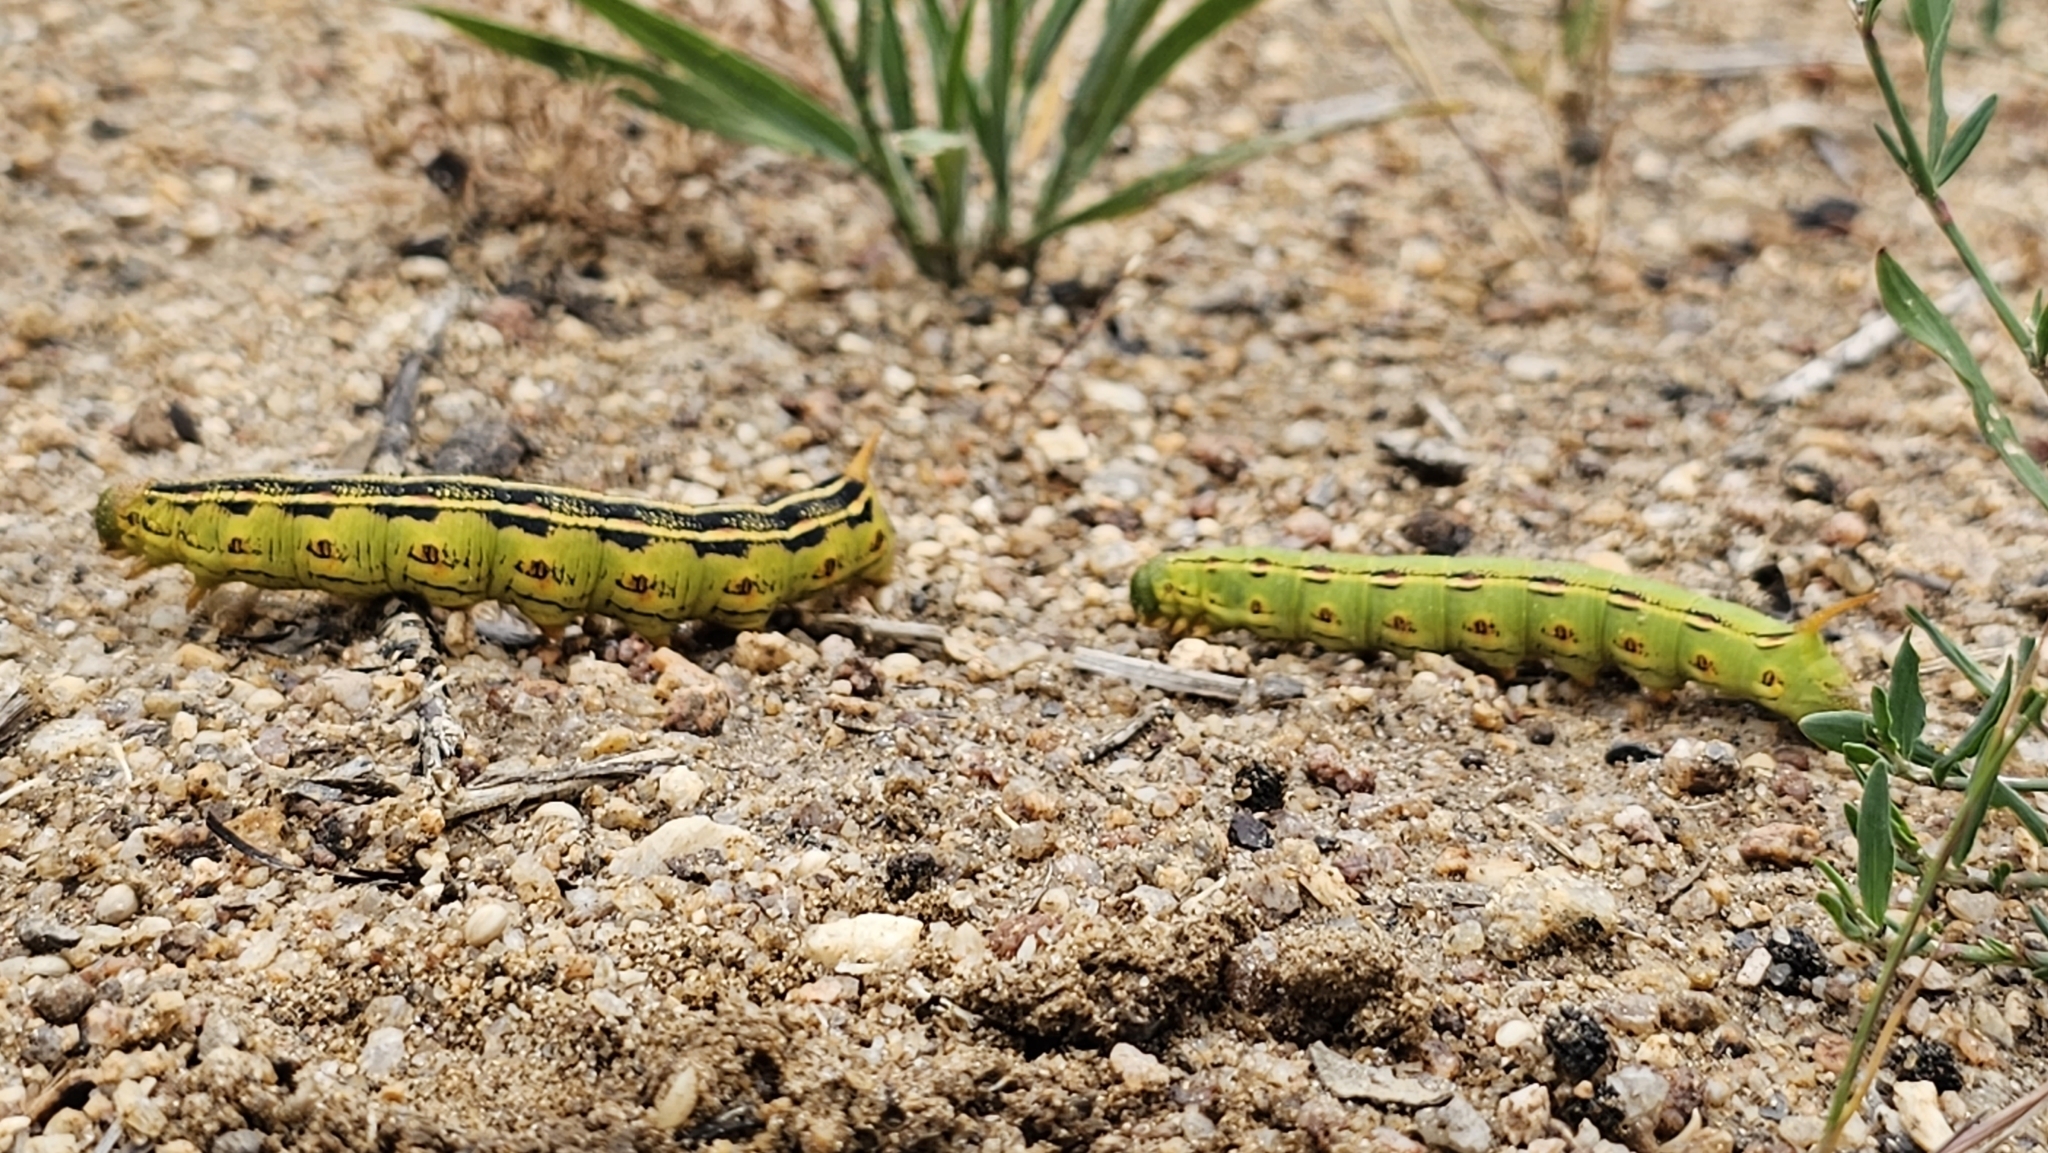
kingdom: Animalia
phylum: Arthropoda
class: Insecta
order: Lepidoptera
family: Sphingidae
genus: Hyles
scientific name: Hyles lineata
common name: White-lined sphinx
